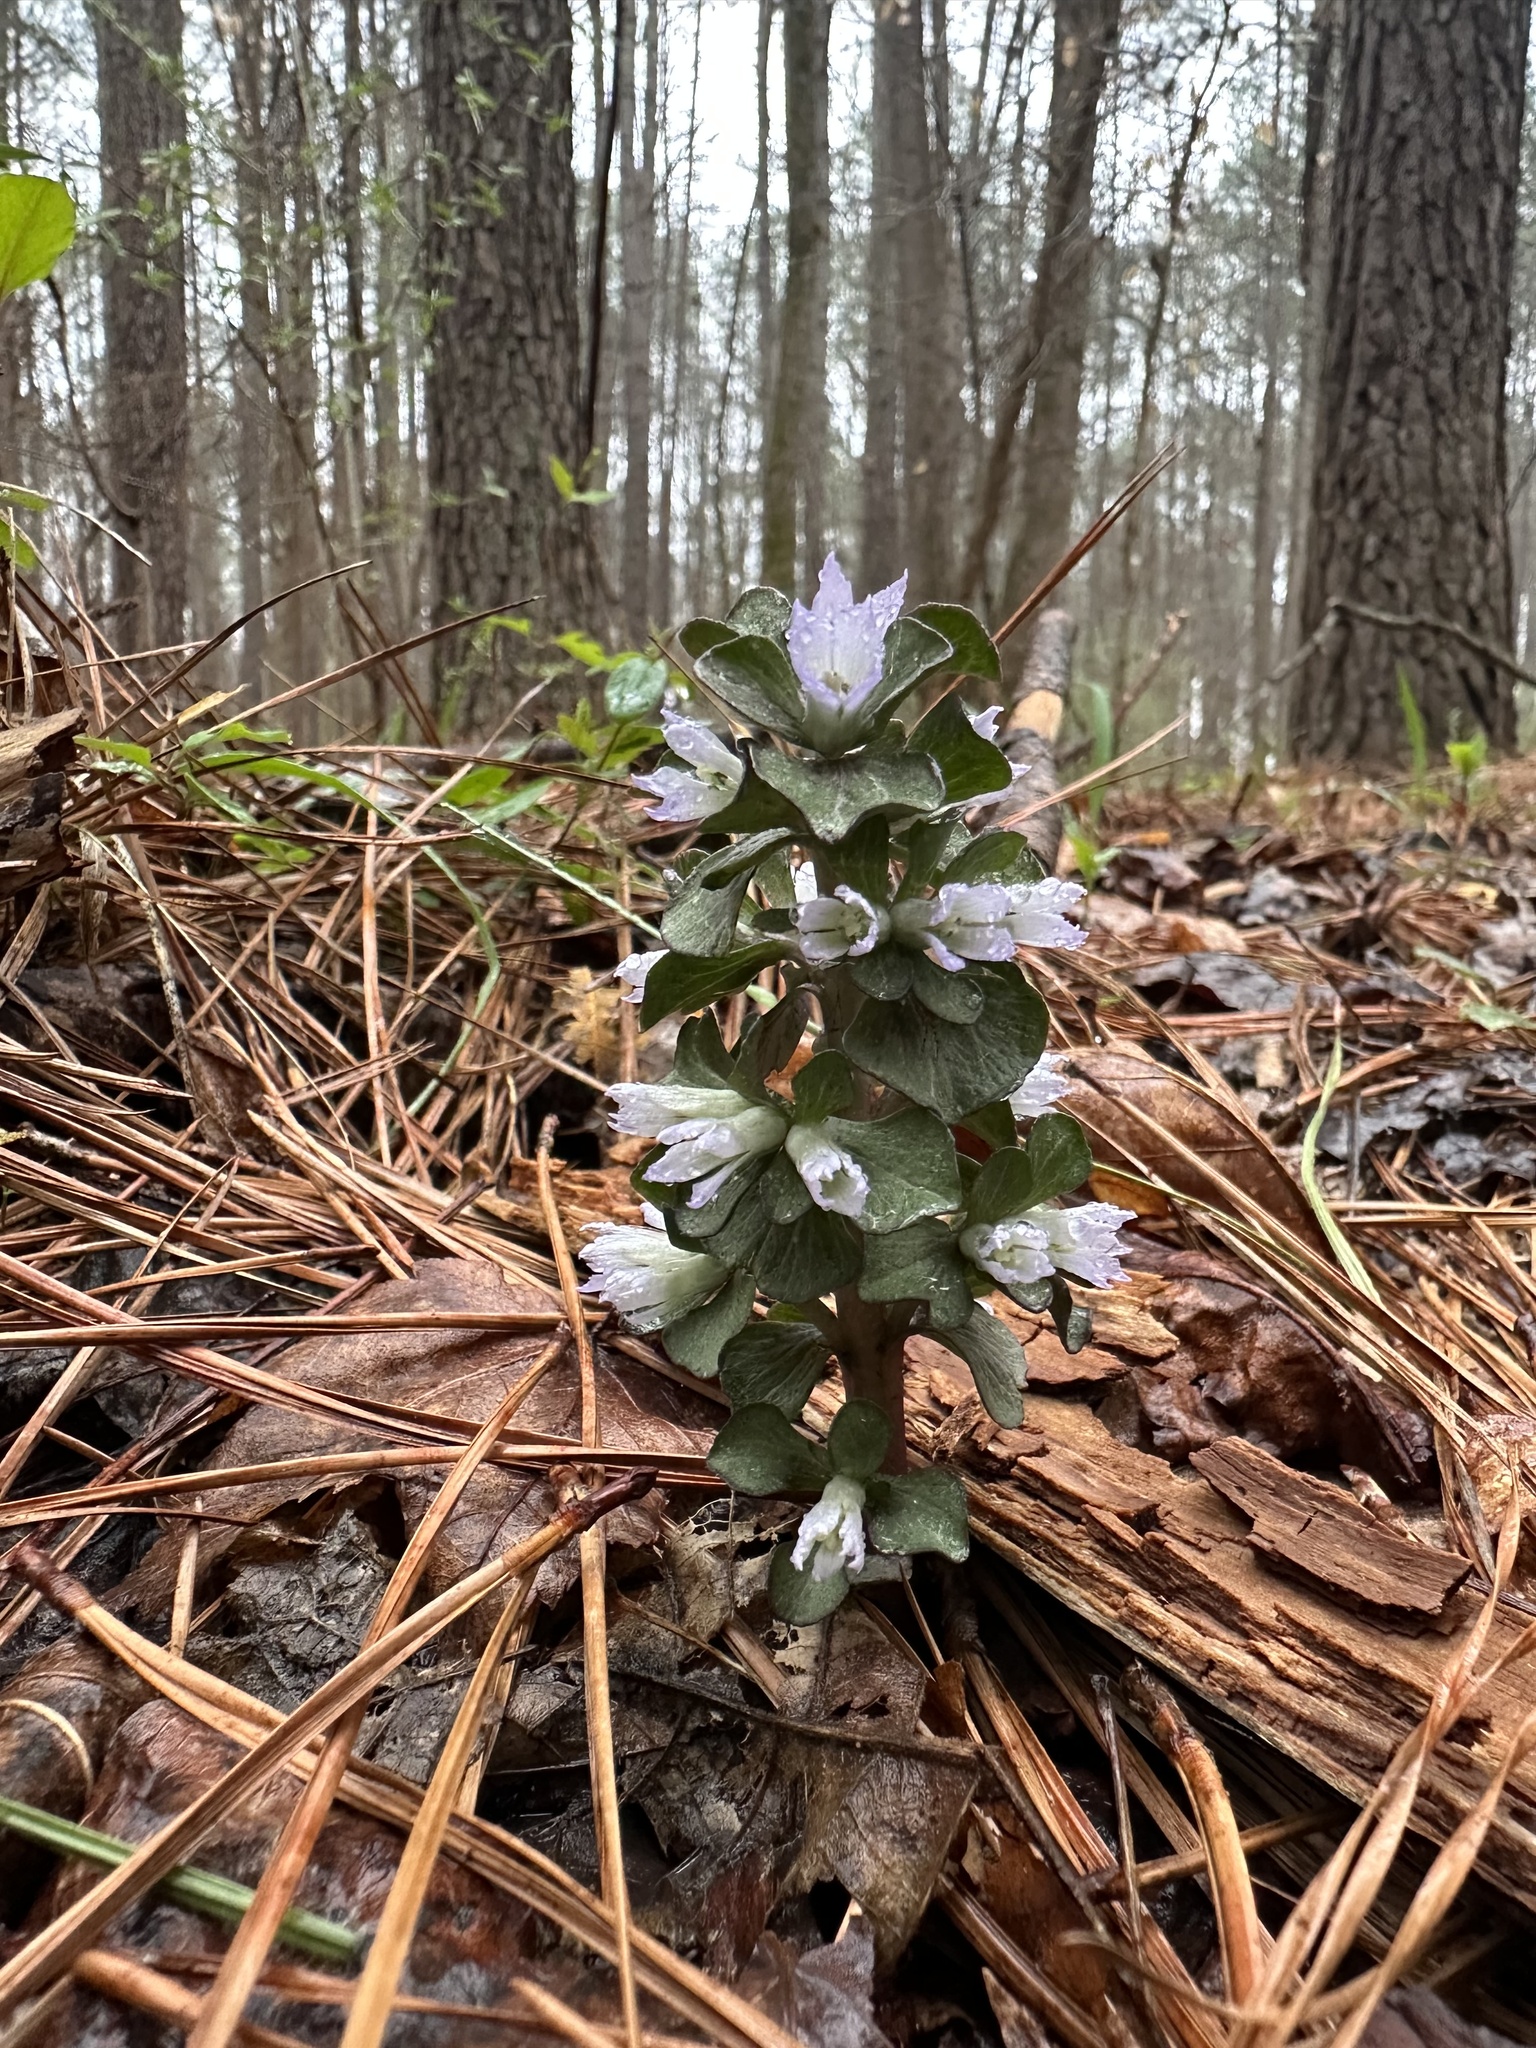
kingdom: Plantae
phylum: Tracheophyta
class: Magnoliopsida
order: Gentianales
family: Gentianaceae
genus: Obolaria
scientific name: Obolaria virginica
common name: Pennywort
